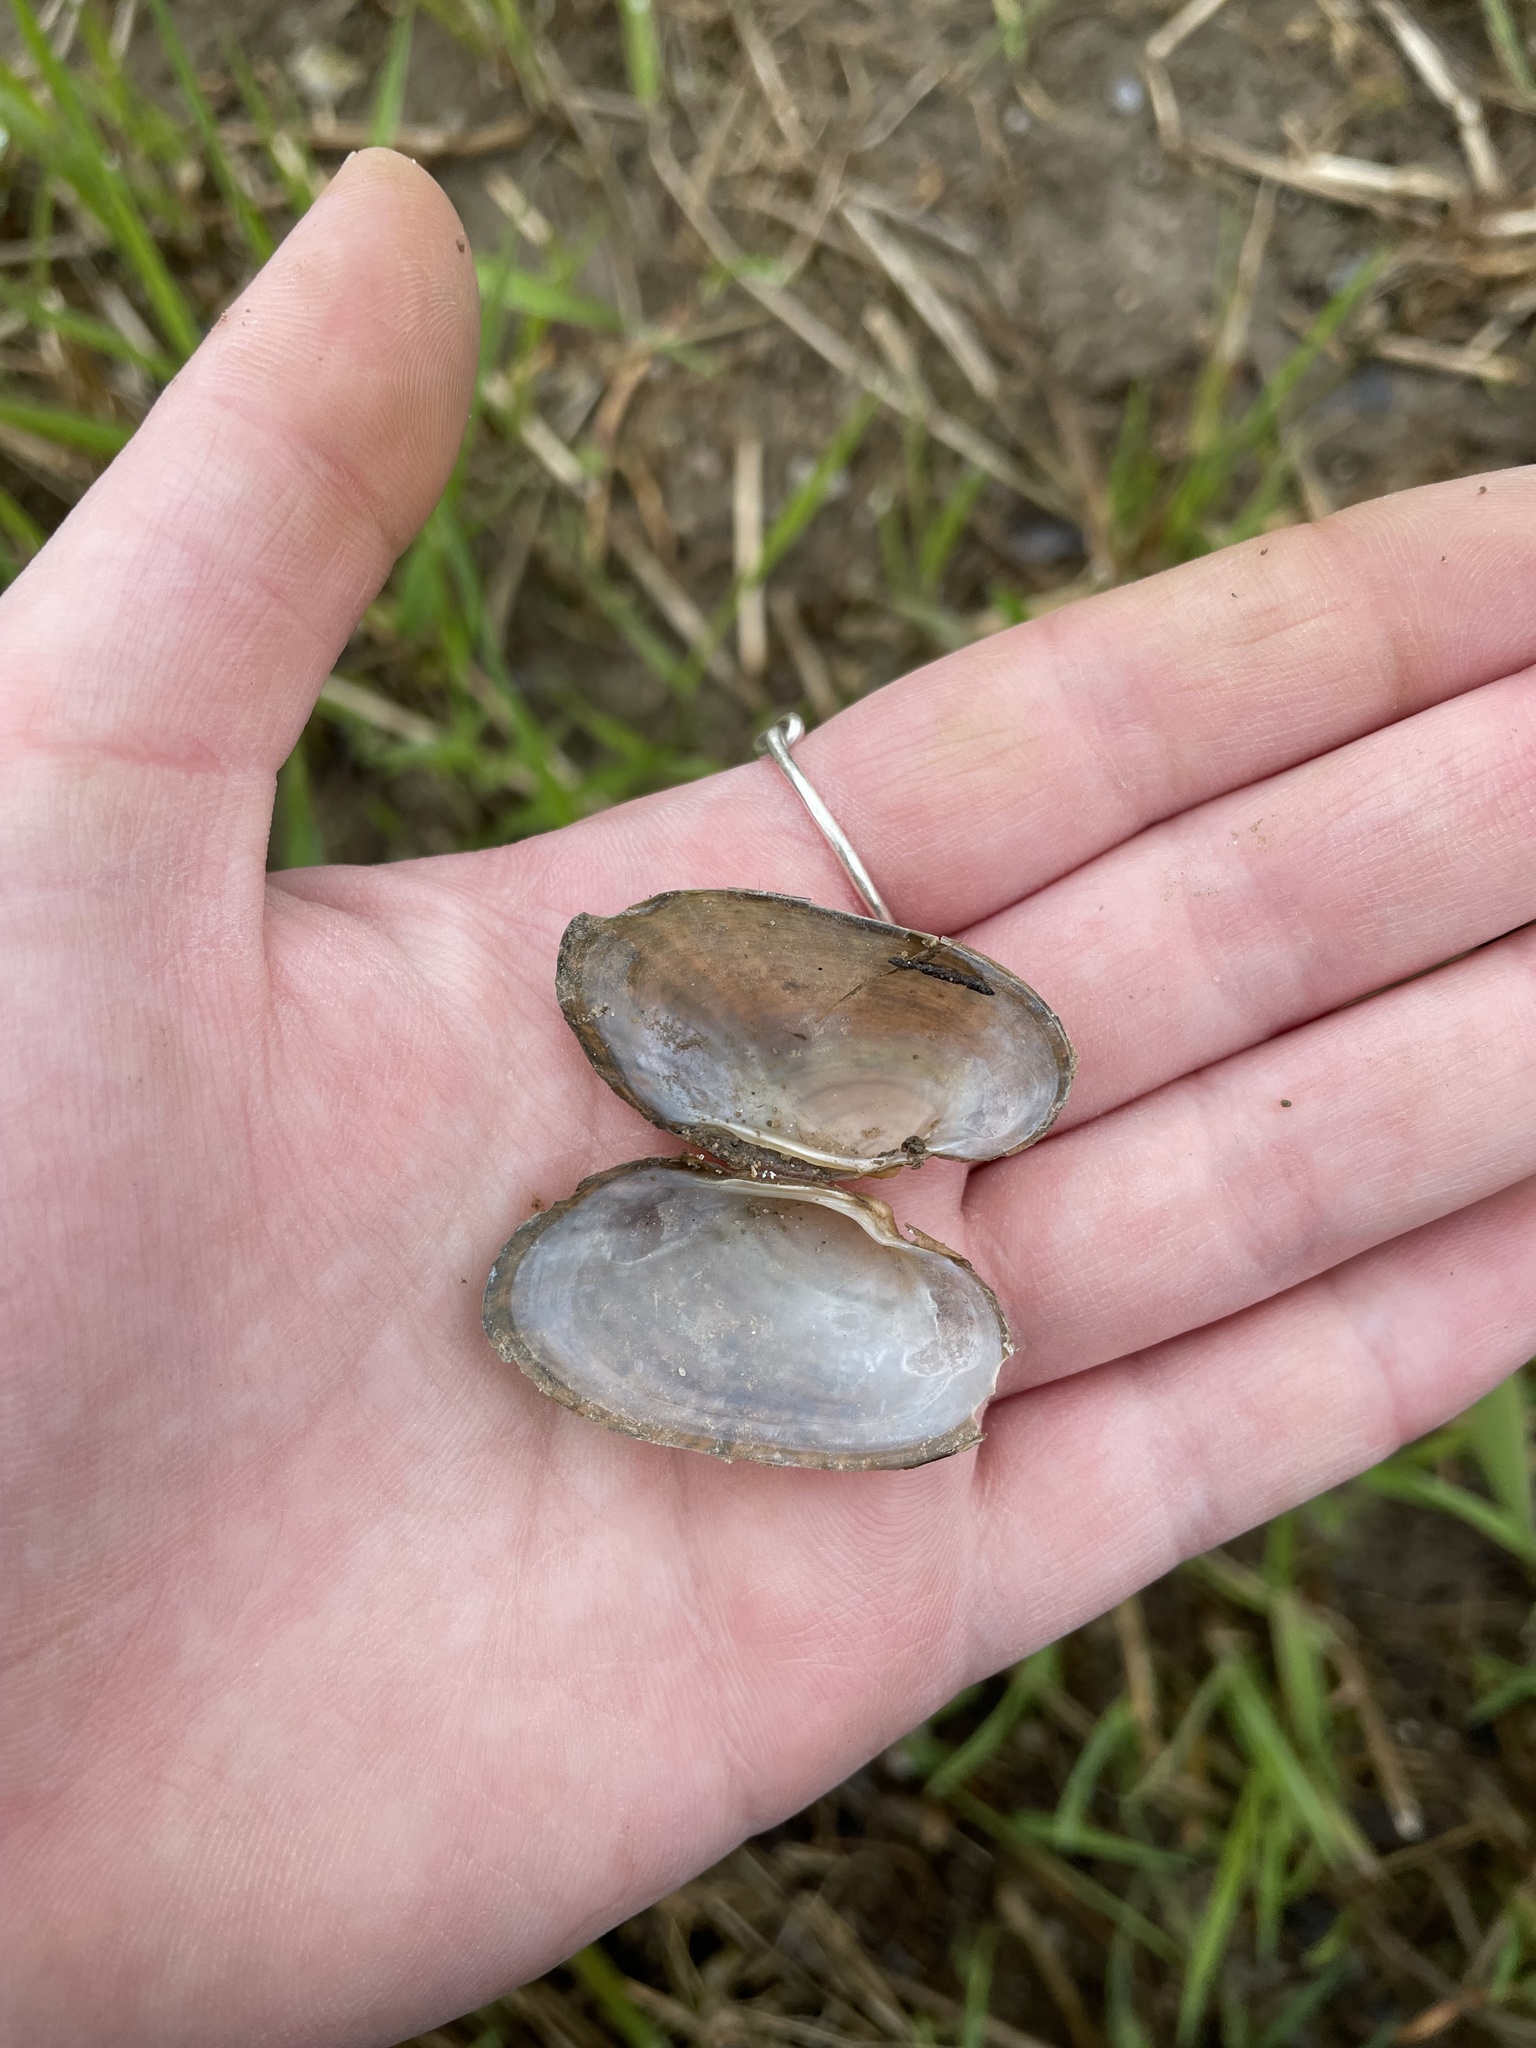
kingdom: Animalia
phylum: Mollusca
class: Bivalvia
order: Unionida
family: Unionidae
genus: Strophitus
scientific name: Strophitus undulatus
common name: Creeper
